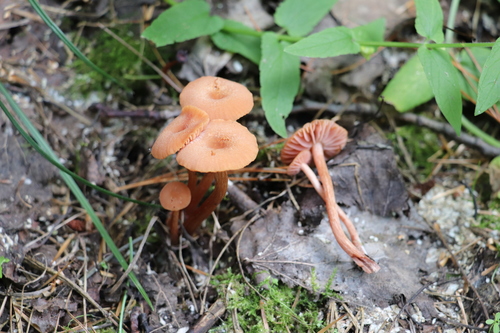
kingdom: Fungi
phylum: Basidiomycota
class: Agaricomycetes
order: Agaricales
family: Hydnangiaceae
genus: Laccaria
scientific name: Laccaria laccata
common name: Deceiver
